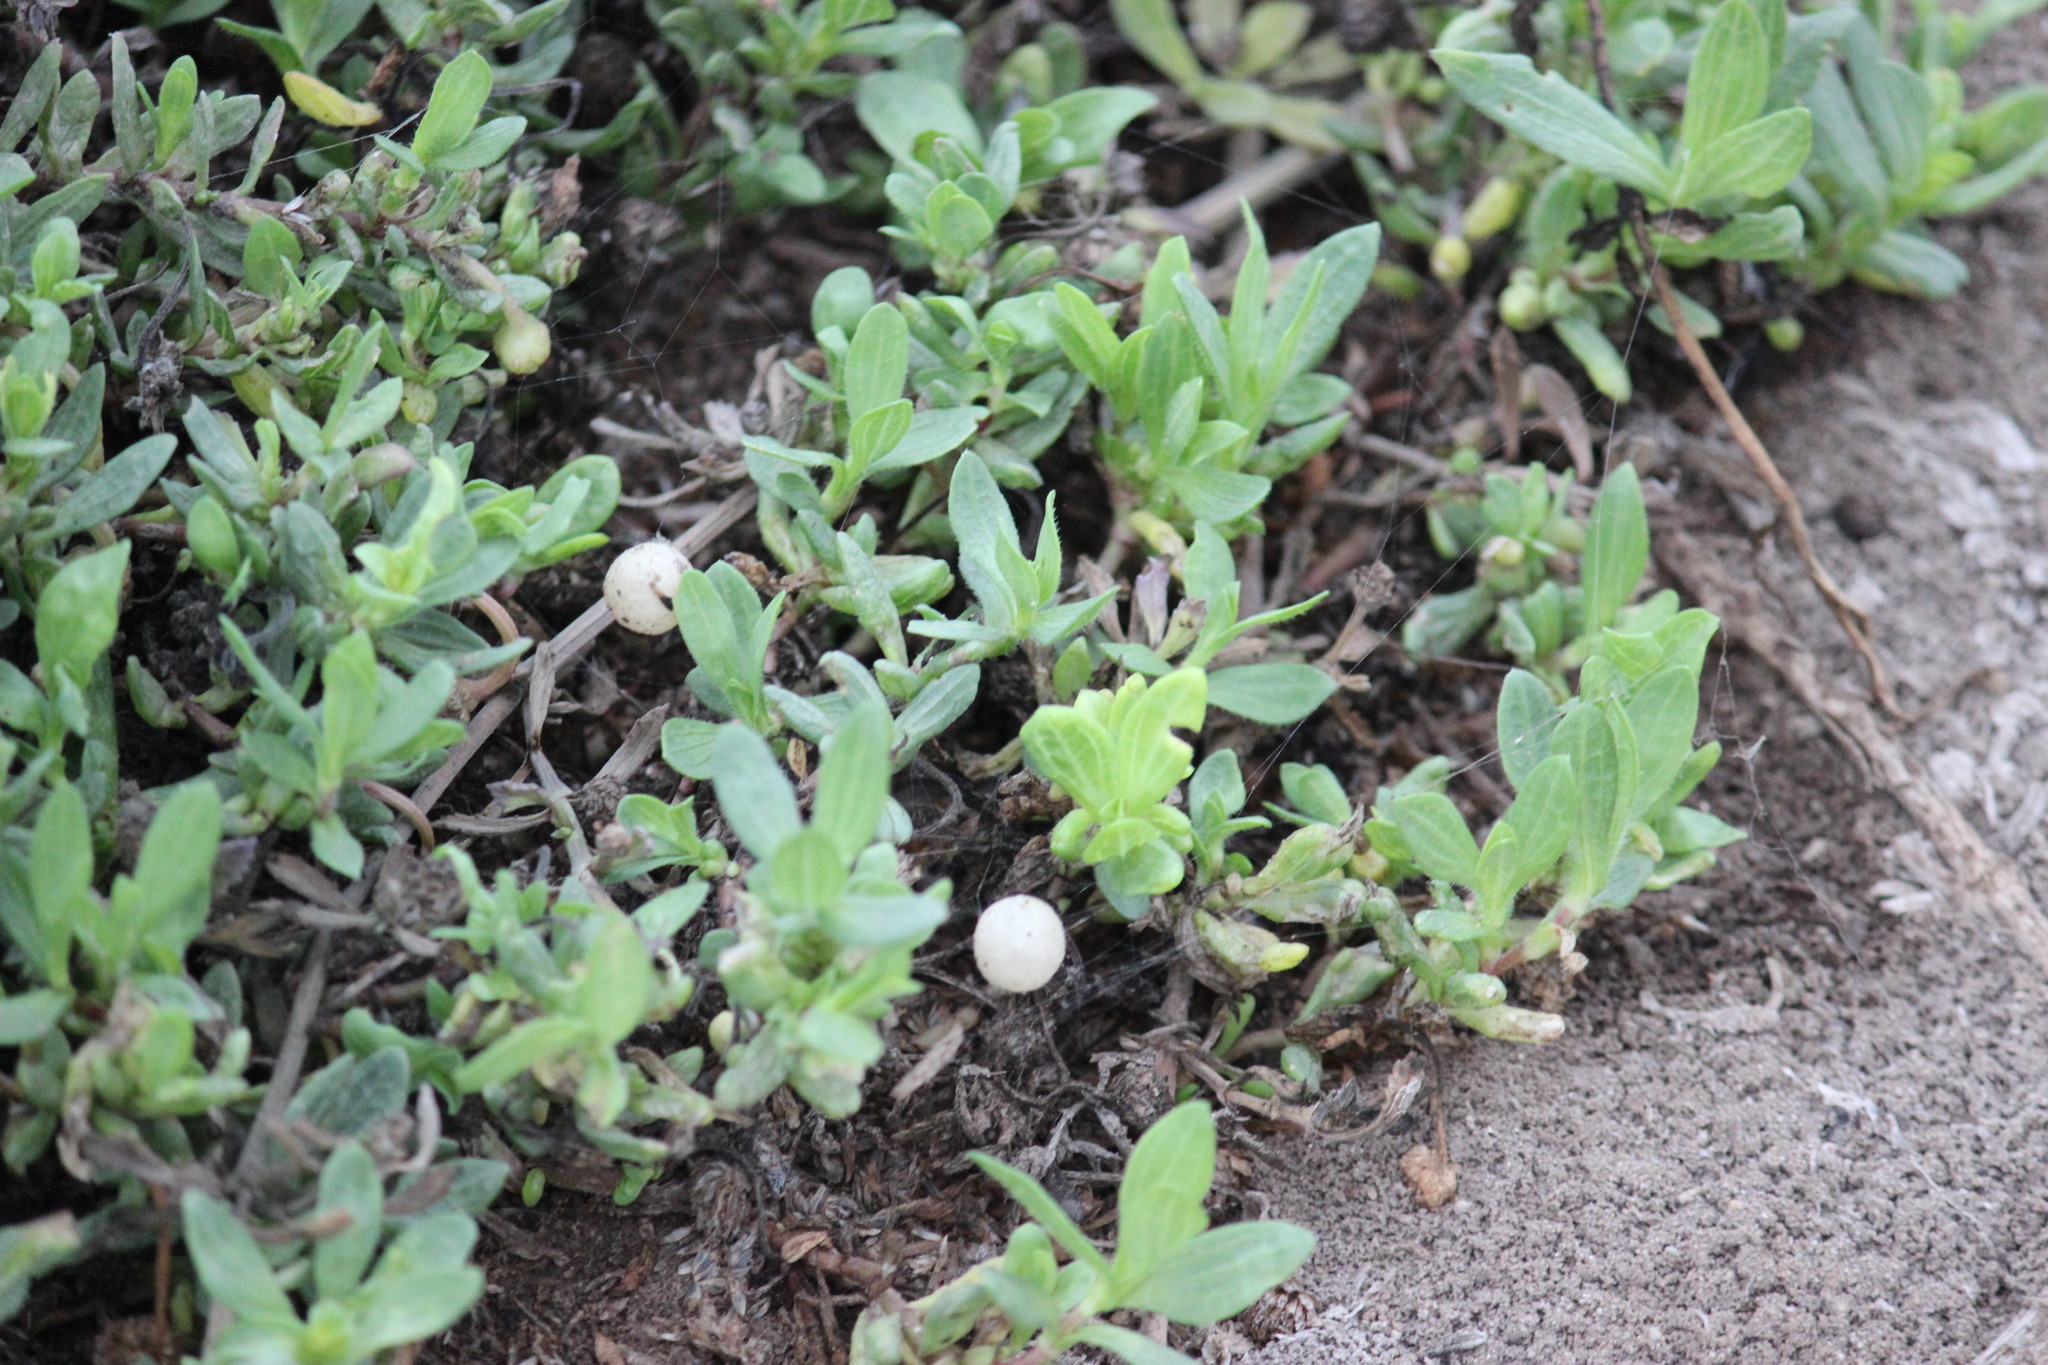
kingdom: Plantae
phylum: Tracheophyta
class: Magnoliopsida
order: Asterales
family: Asteraceae
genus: Spilanthes
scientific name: Spilanthes leiocarpa
